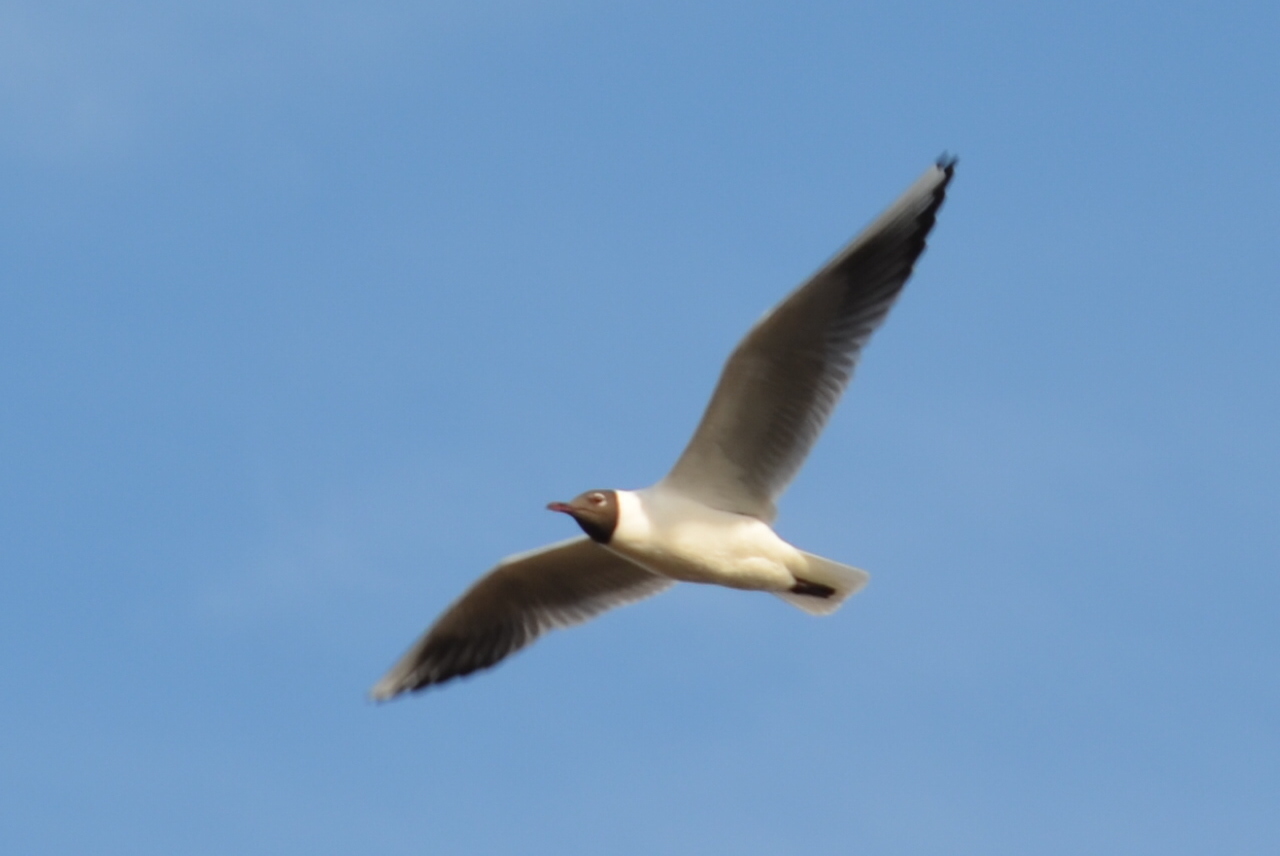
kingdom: Animalia
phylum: Chordata
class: Aves
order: Charadriiformes
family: Laridae
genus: Chroicocephalus
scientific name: Chroicocephalus ridibundus
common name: Black-headed gull
